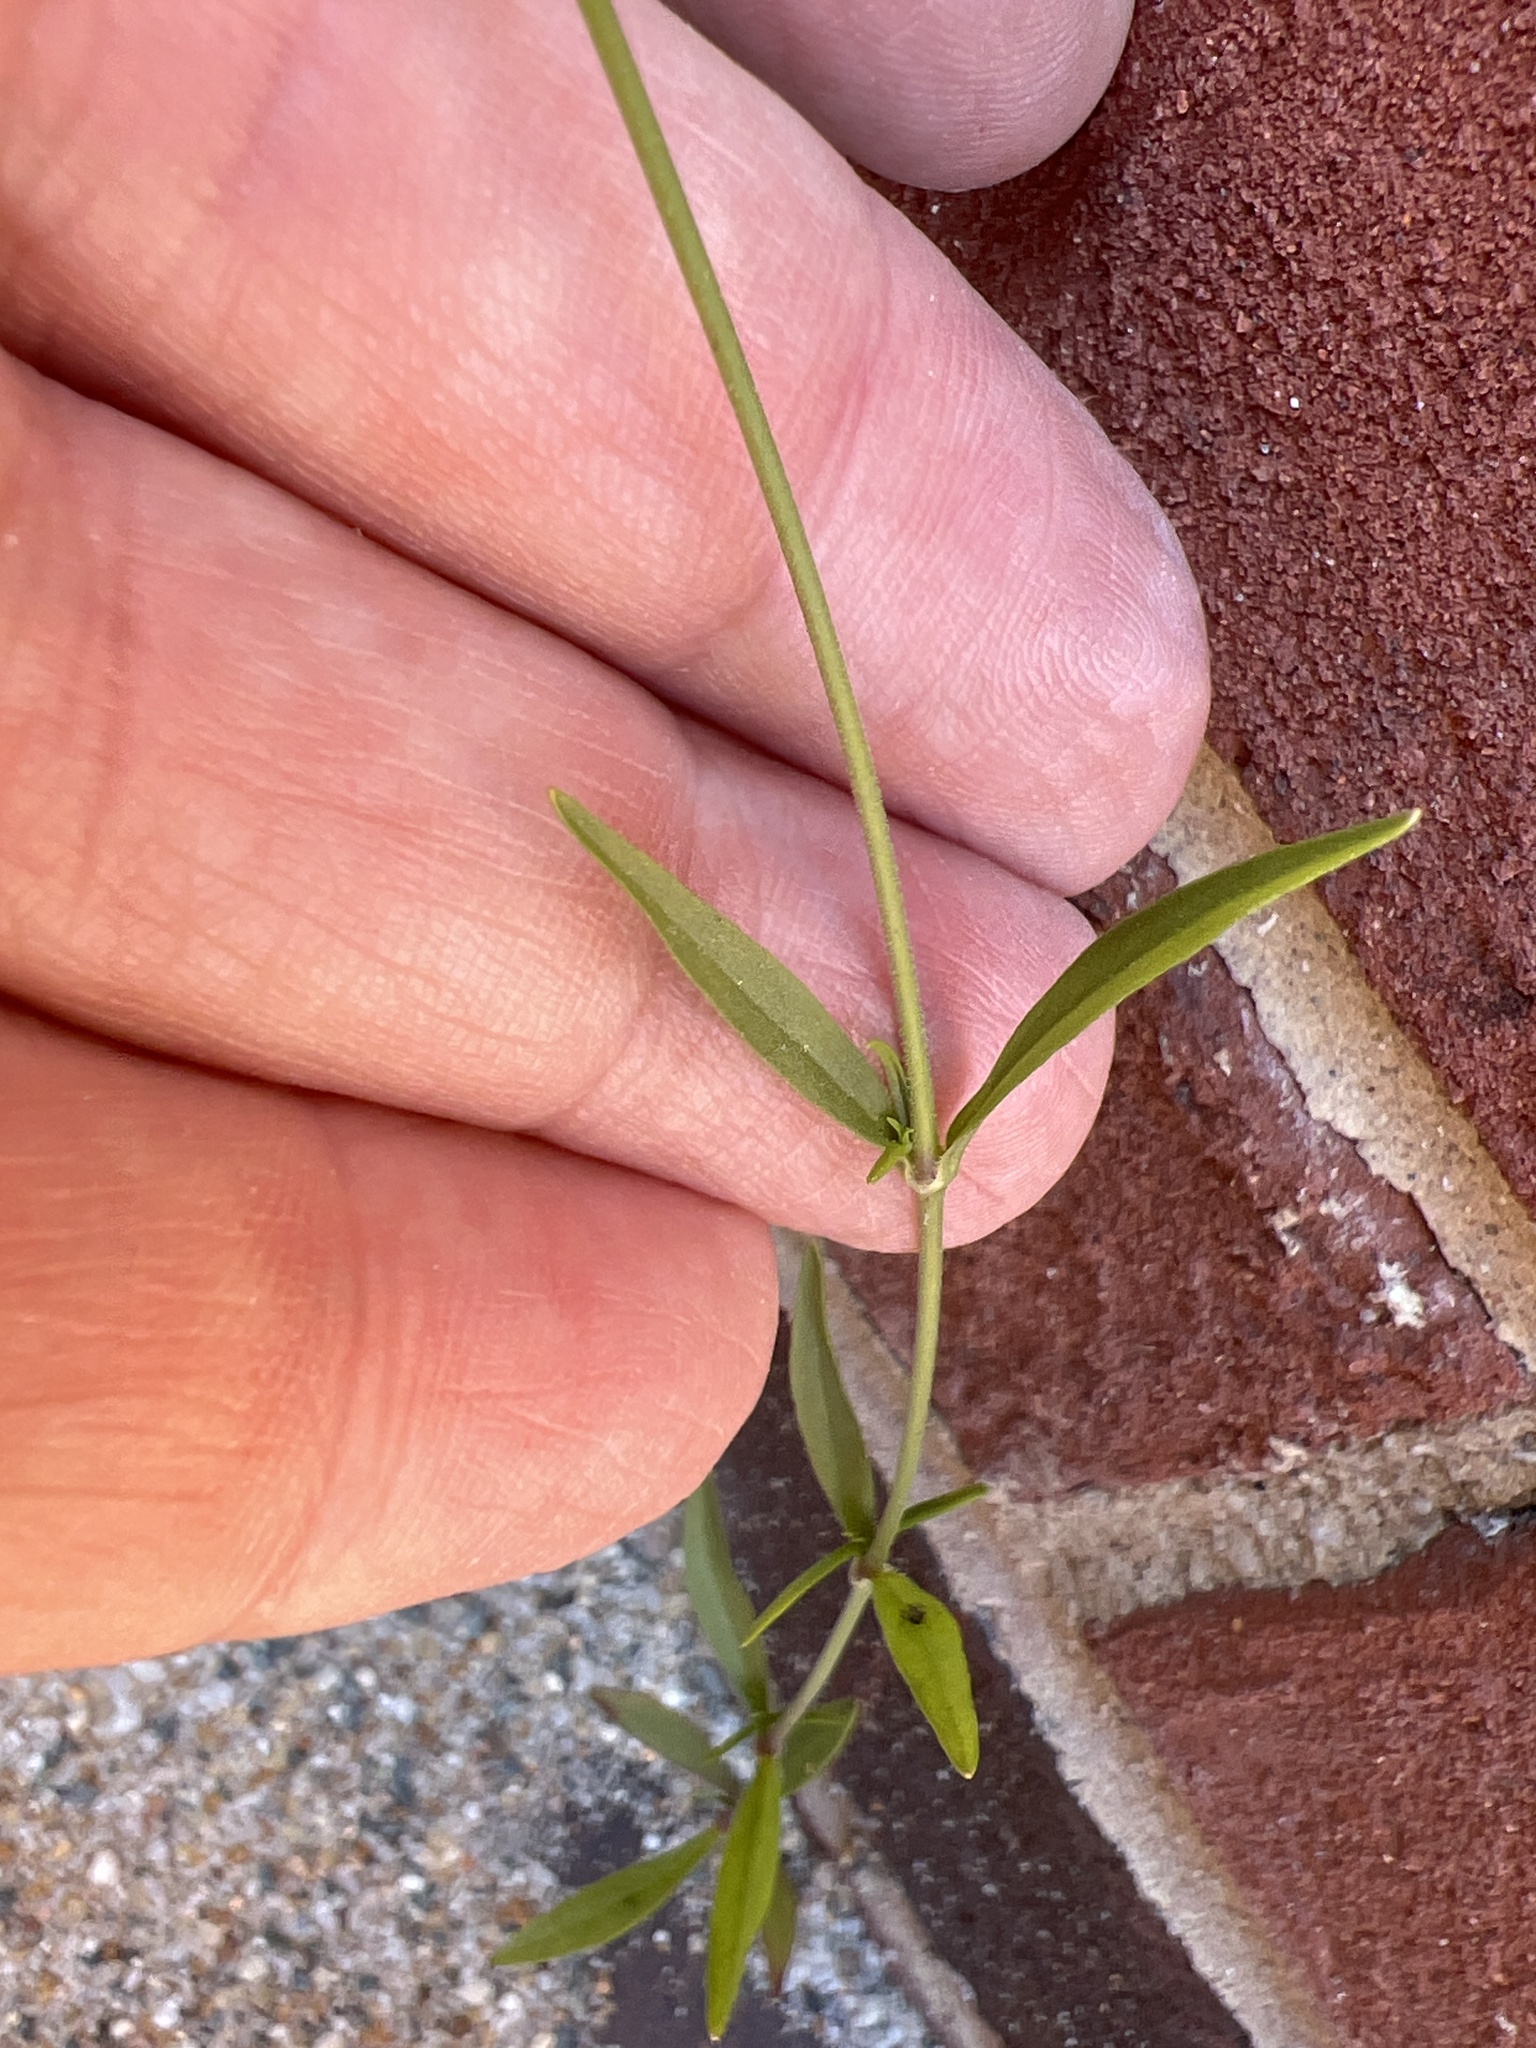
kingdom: Plantae
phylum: Tracheophyta
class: Magnoliopsida
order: Caryophyllales
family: Caryophyllaceae
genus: Silene
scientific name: Silene antirrhina
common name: Sleepy catchfly
